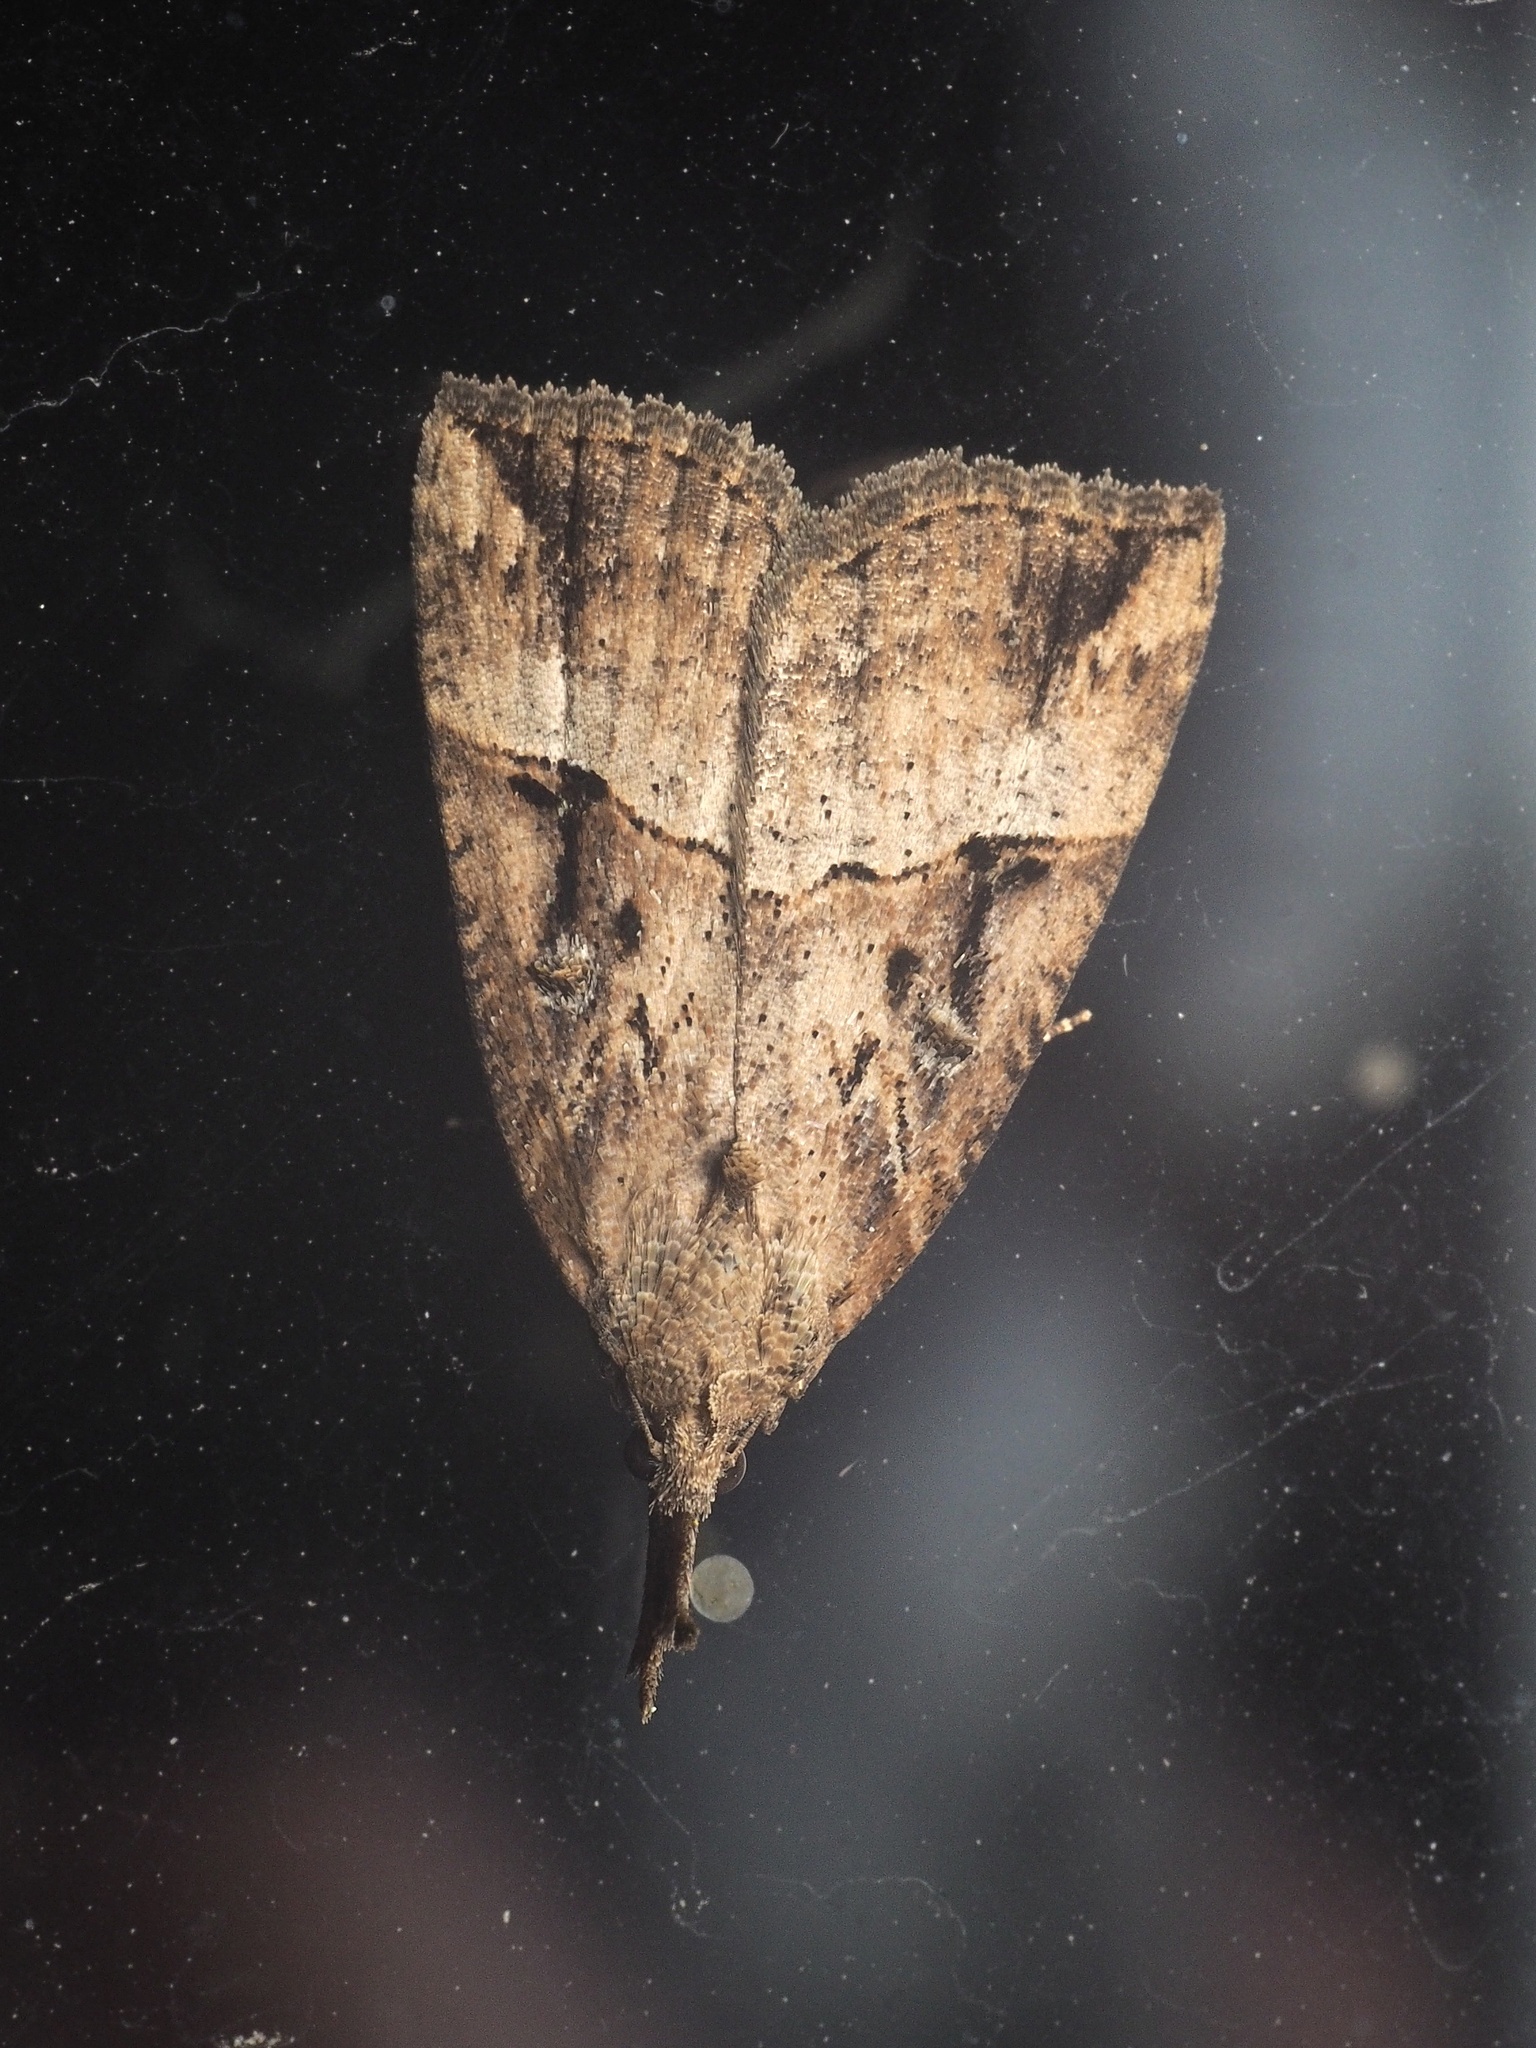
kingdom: Animalia
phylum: Arthropoda
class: Insecta
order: Lepidoptera
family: Erebidae
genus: Hypena
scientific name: Hypena rostralis
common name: Buttoned snout
